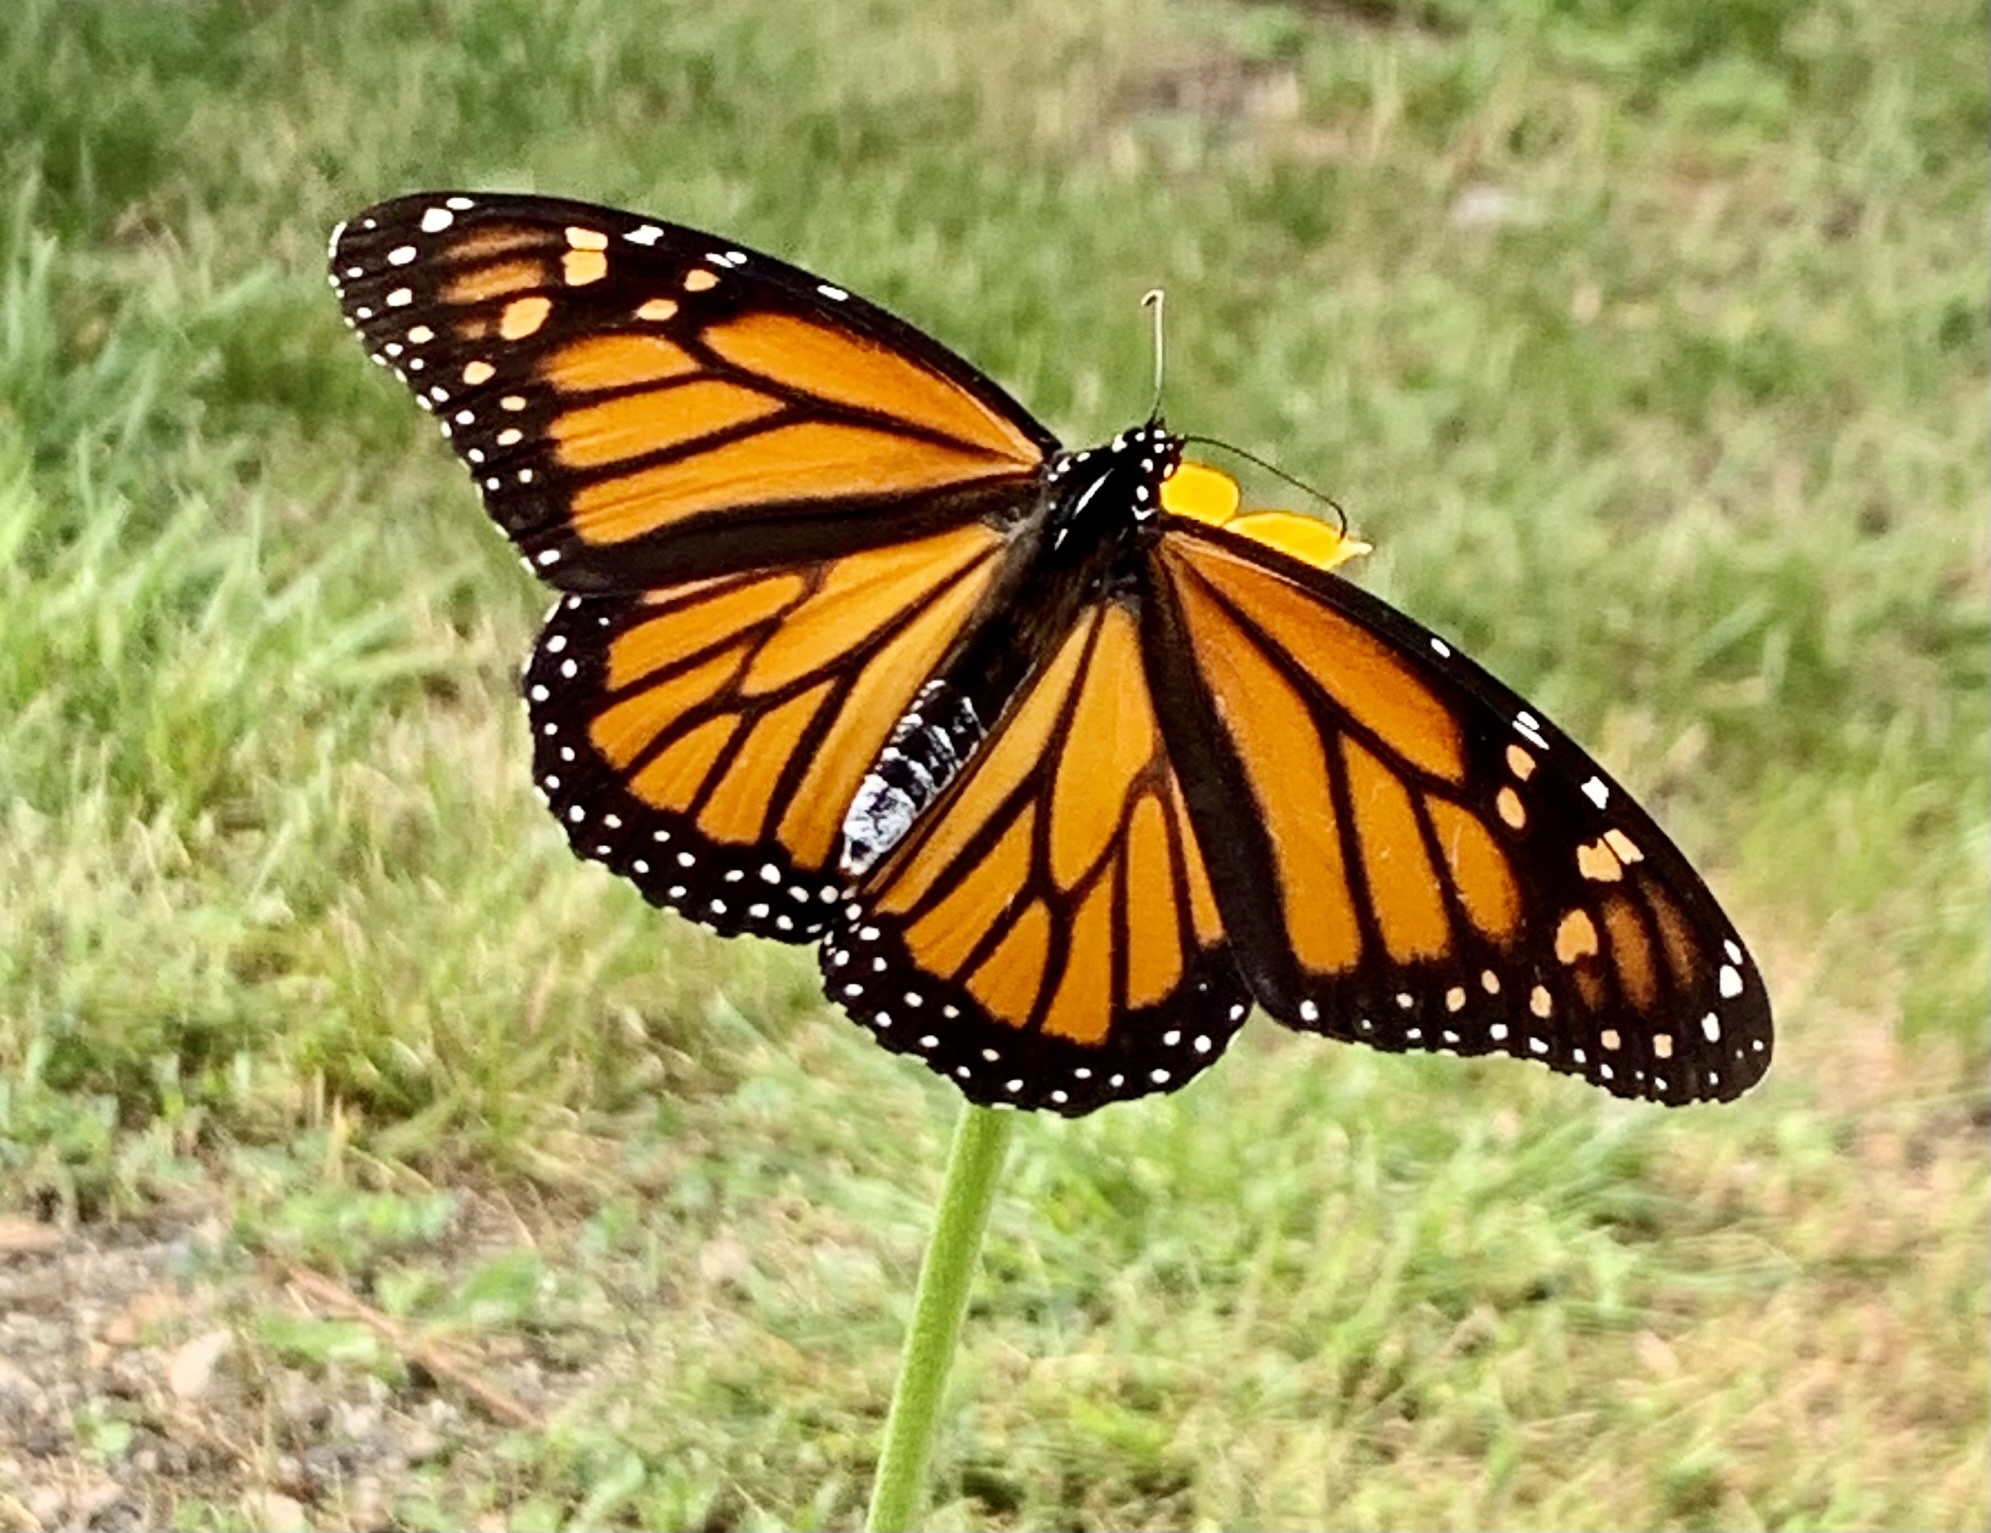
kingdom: Animalia
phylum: Arthropoda
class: Insecta
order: Lepidoptera
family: Nymphalidae
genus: Danaus
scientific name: Danaus plexippus
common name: Monarch
